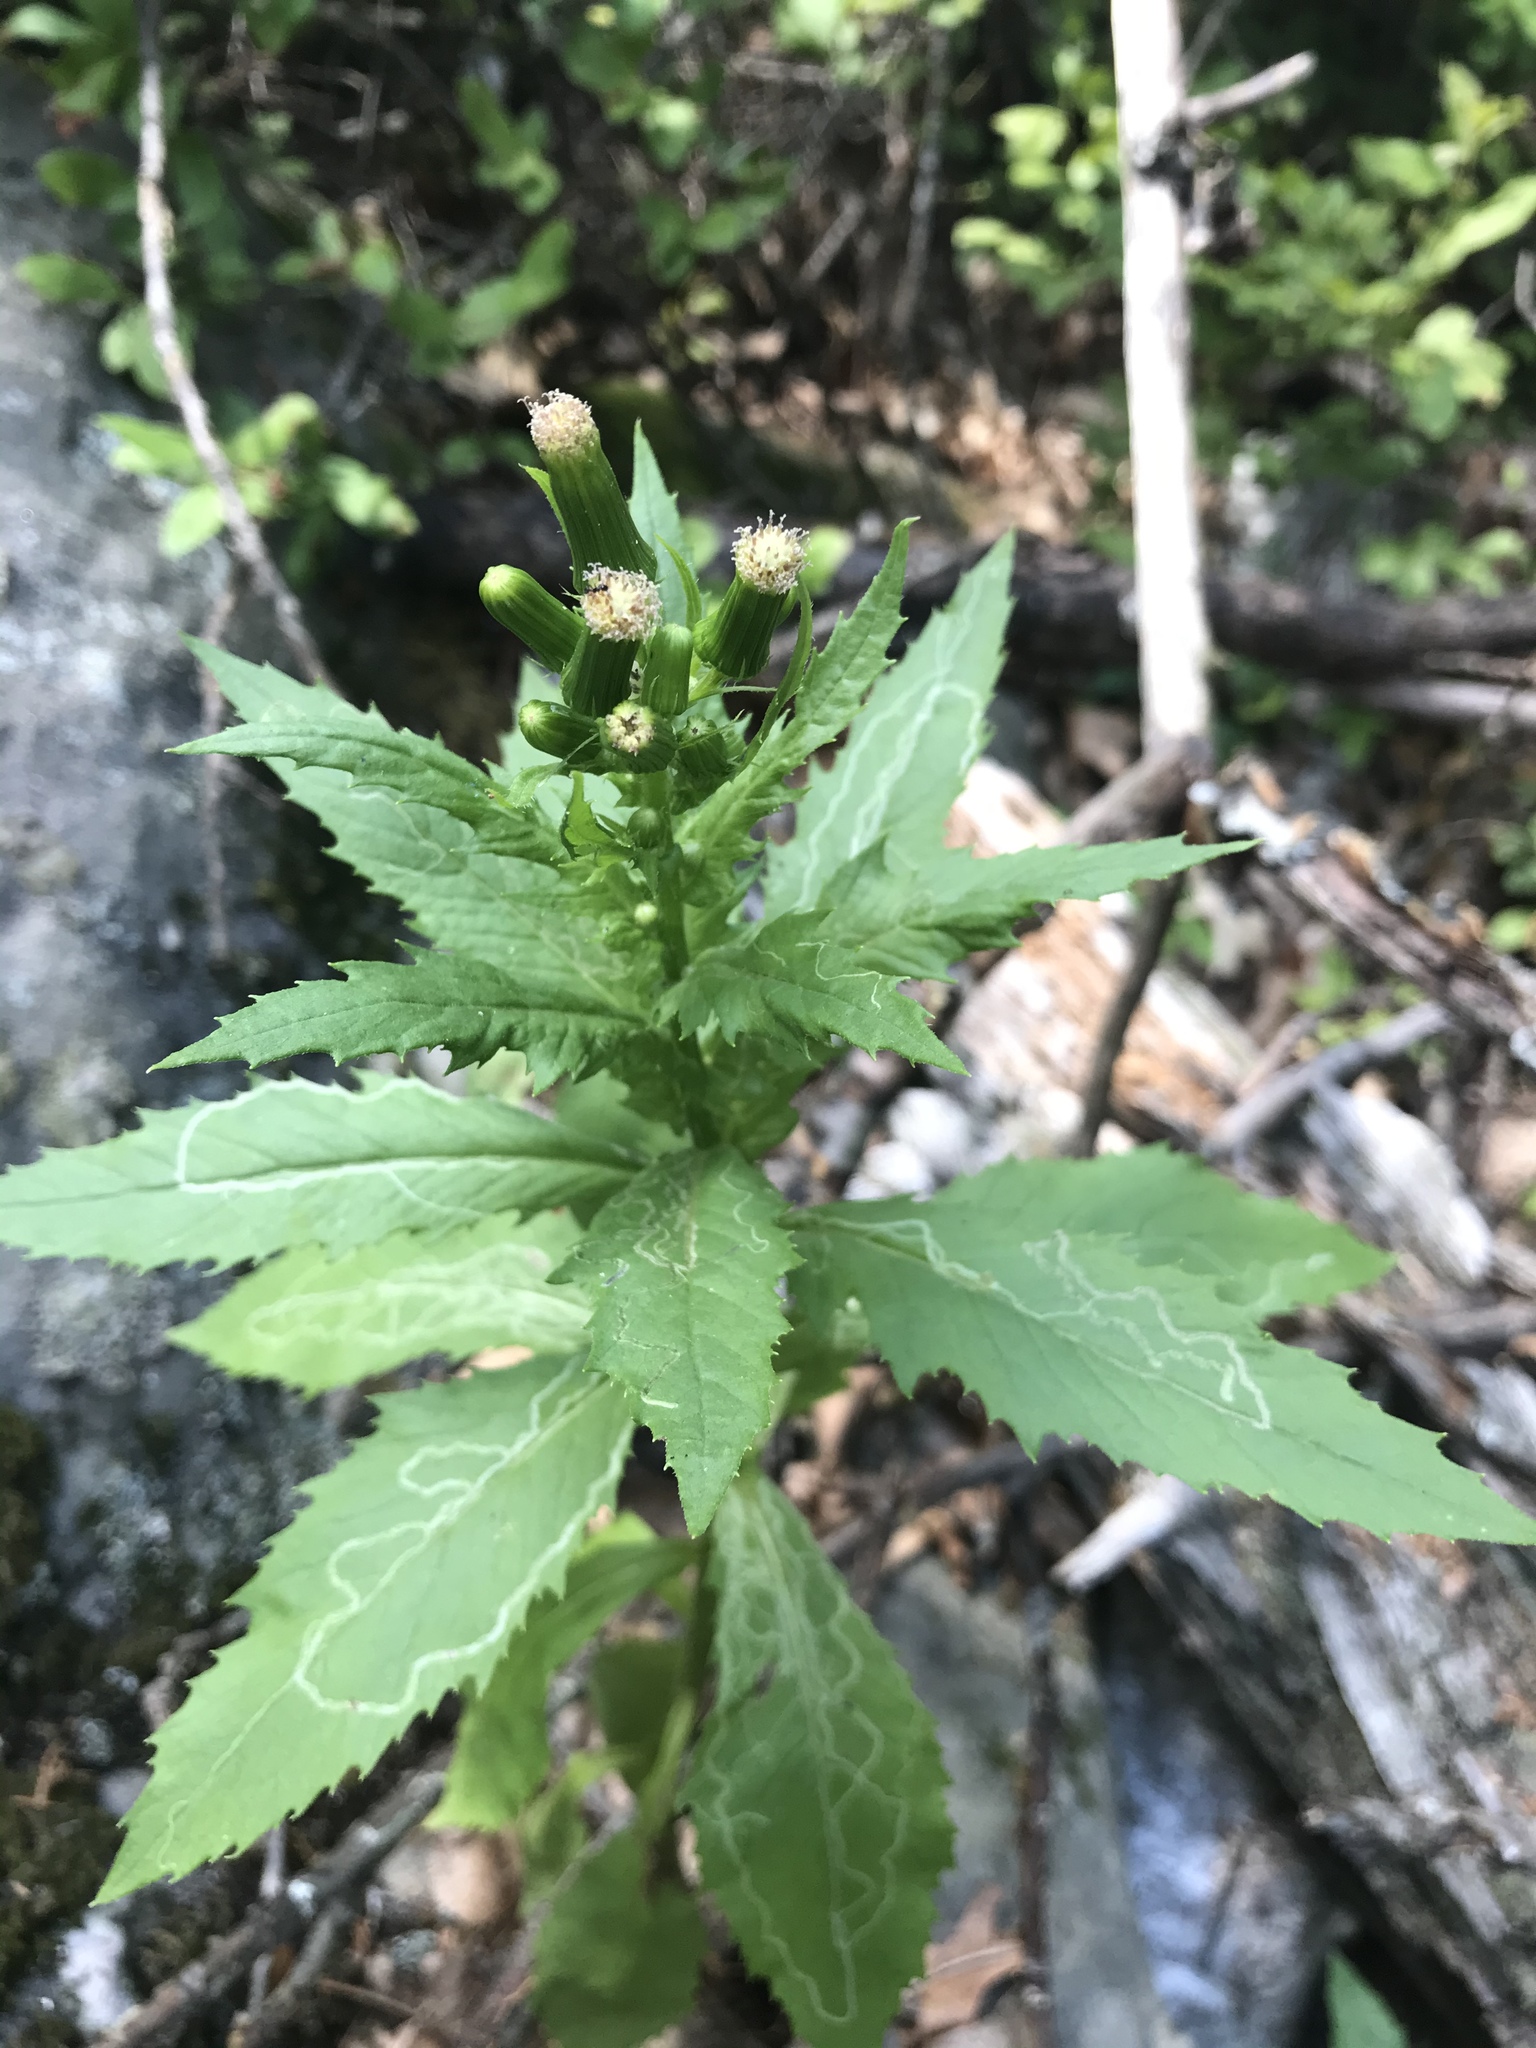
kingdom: Plantae
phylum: Tracheophyta
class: Magnoliopsida
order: Asterales
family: Asteraceae
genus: Erechtites
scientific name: Erechtites hieraciifolius
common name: American burnweed
